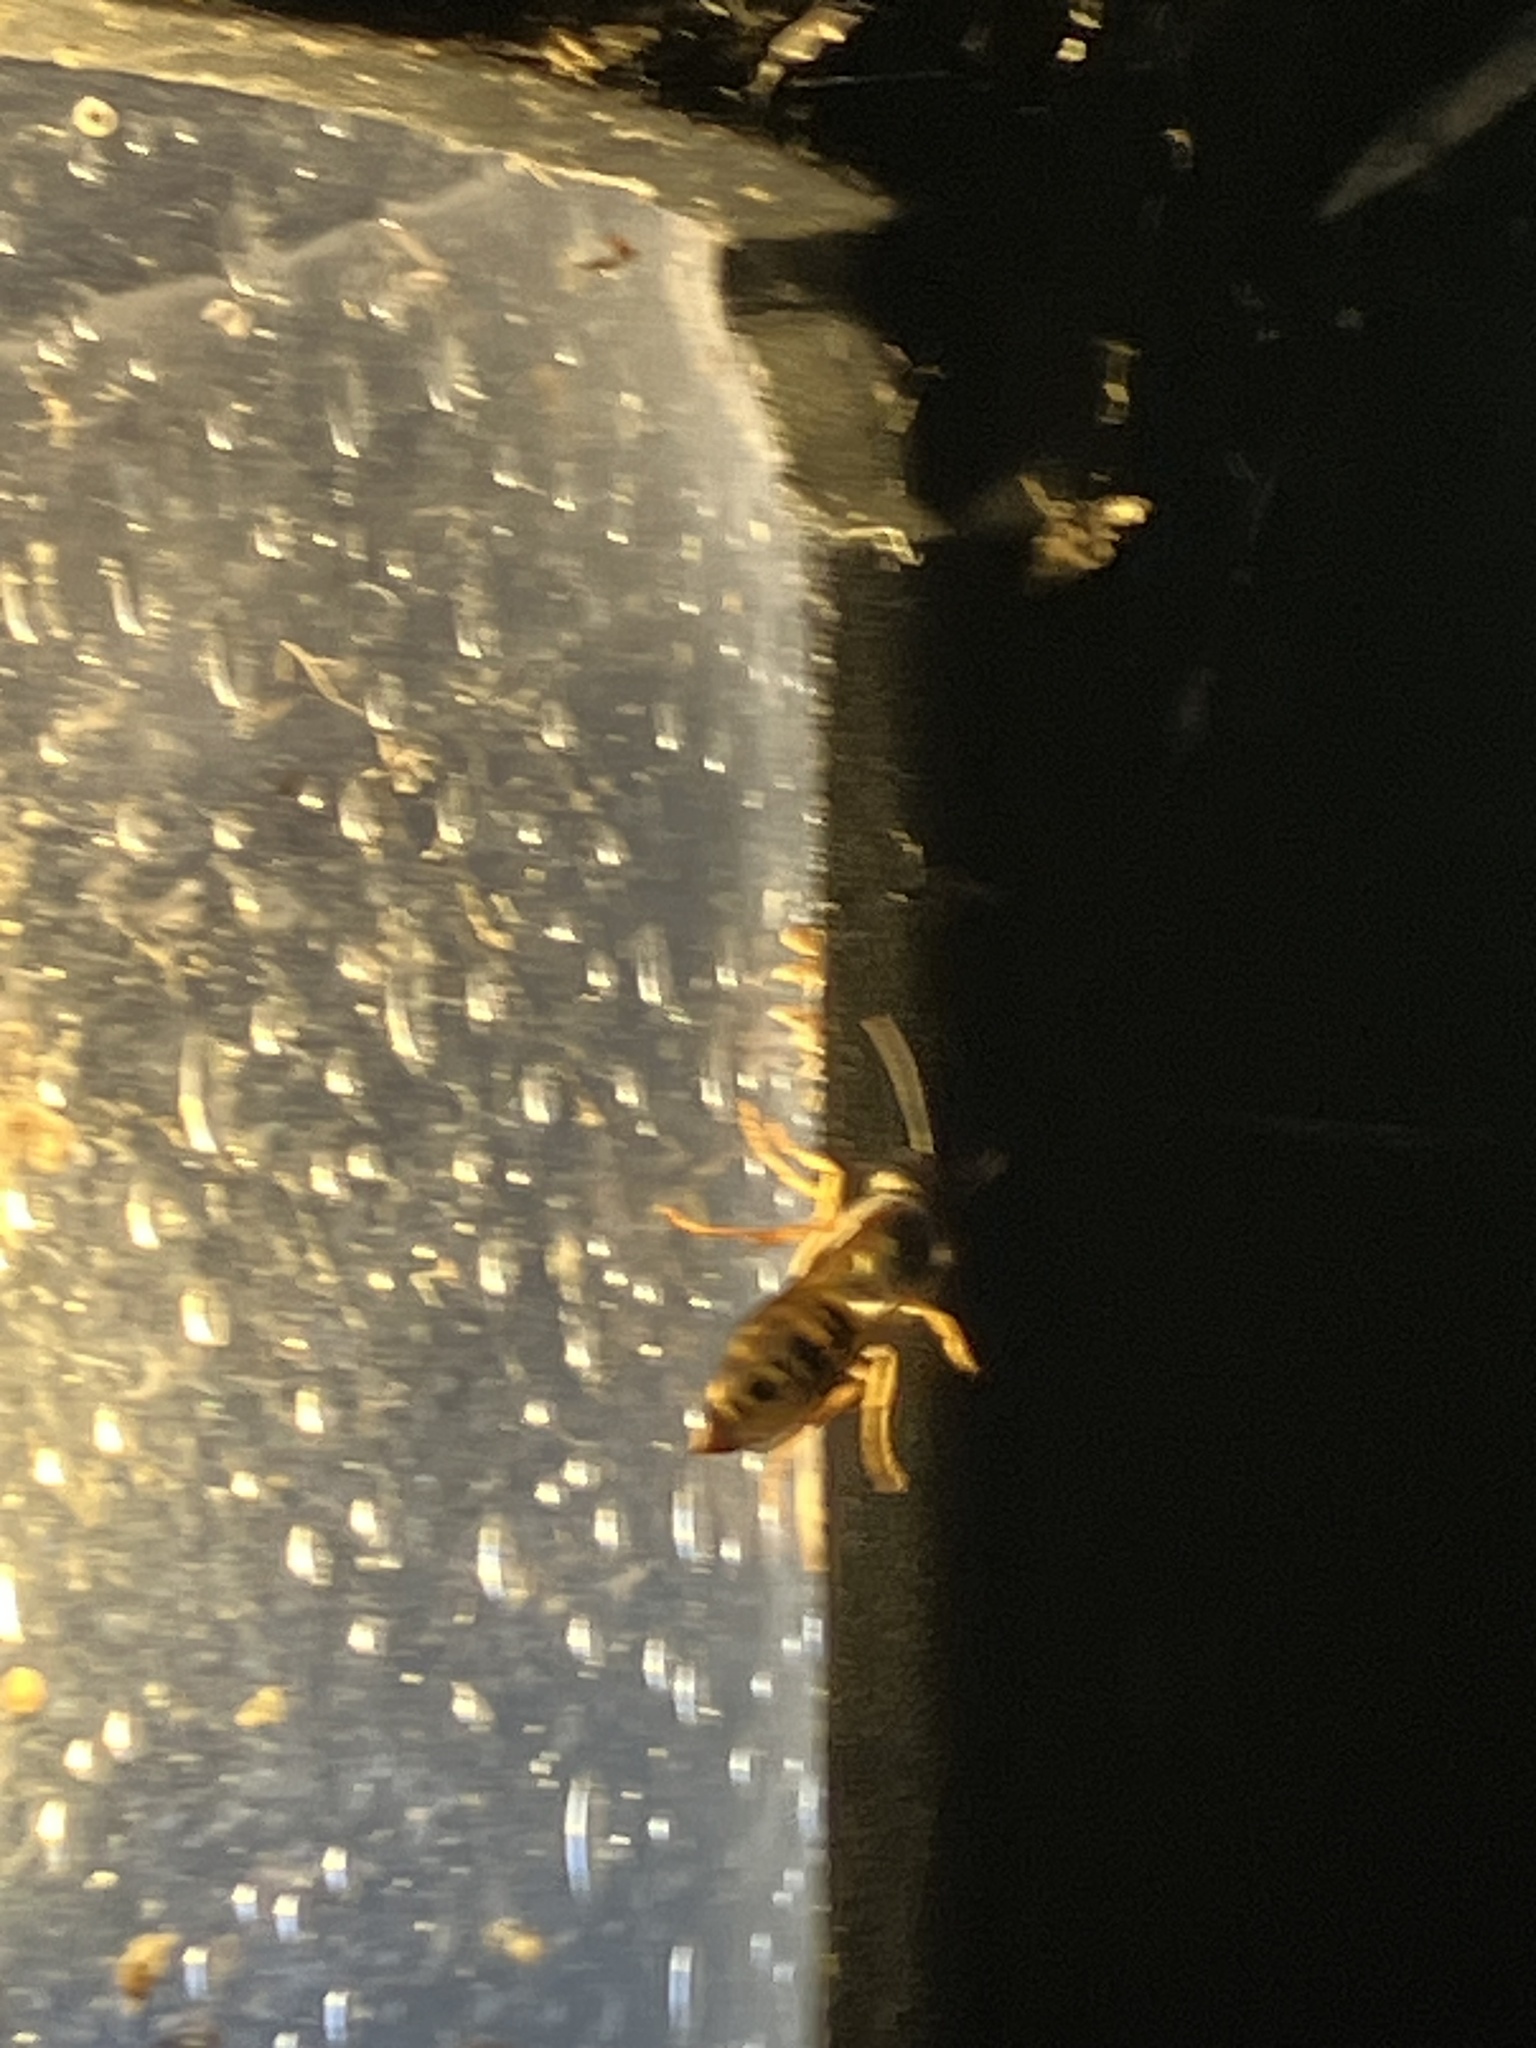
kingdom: Animalia
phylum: Arthropoda
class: Insecta
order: Hymenoptera
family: Vespidae
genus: Vespula
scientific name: Vespula squamosa
